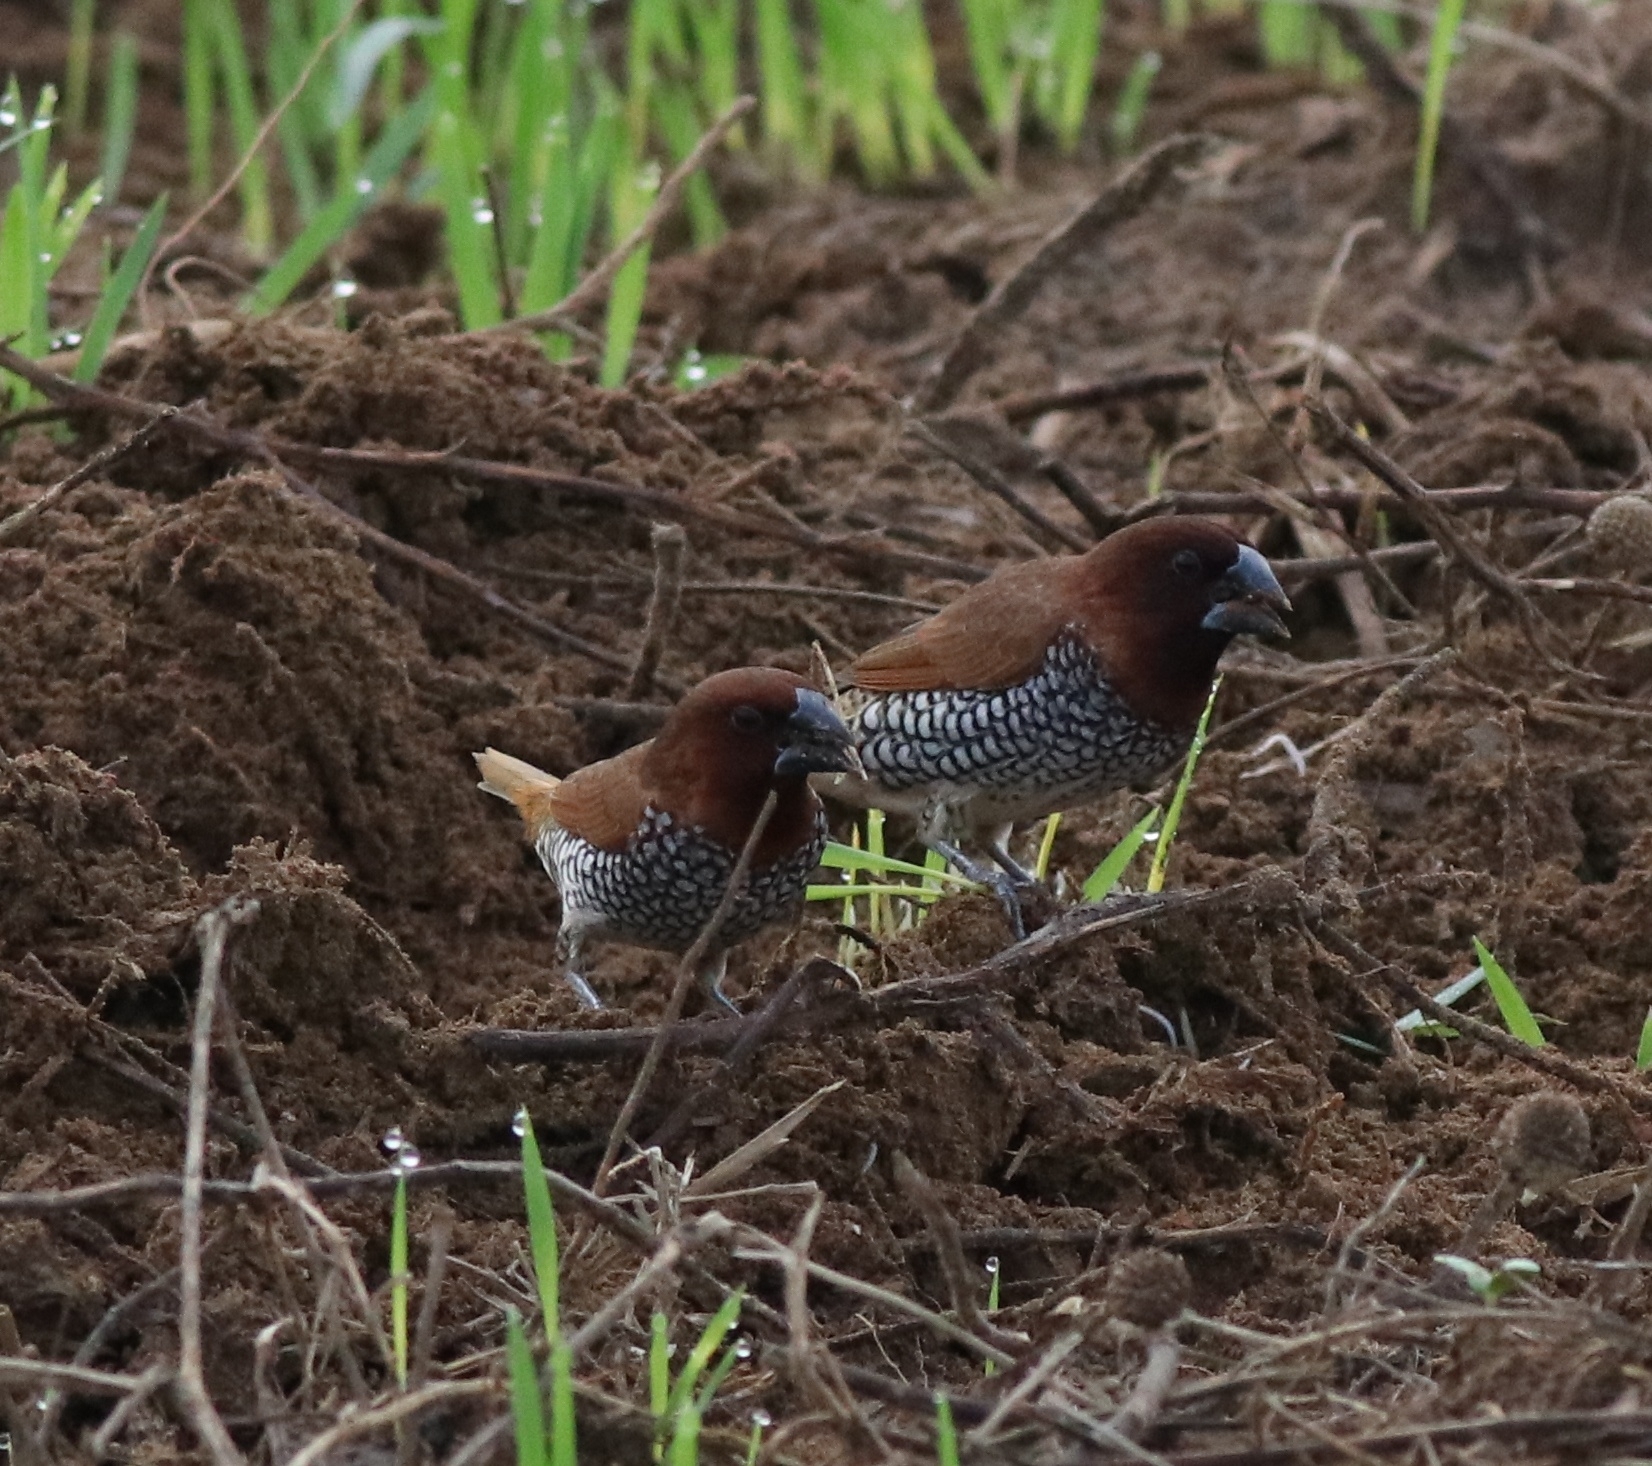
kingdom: Animalia
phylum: Chordata
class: Aves
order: Passeriformes
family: Estrildidae
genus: Lonchura
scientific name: Lonchura punctulata
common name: Scaly-breasted munia
